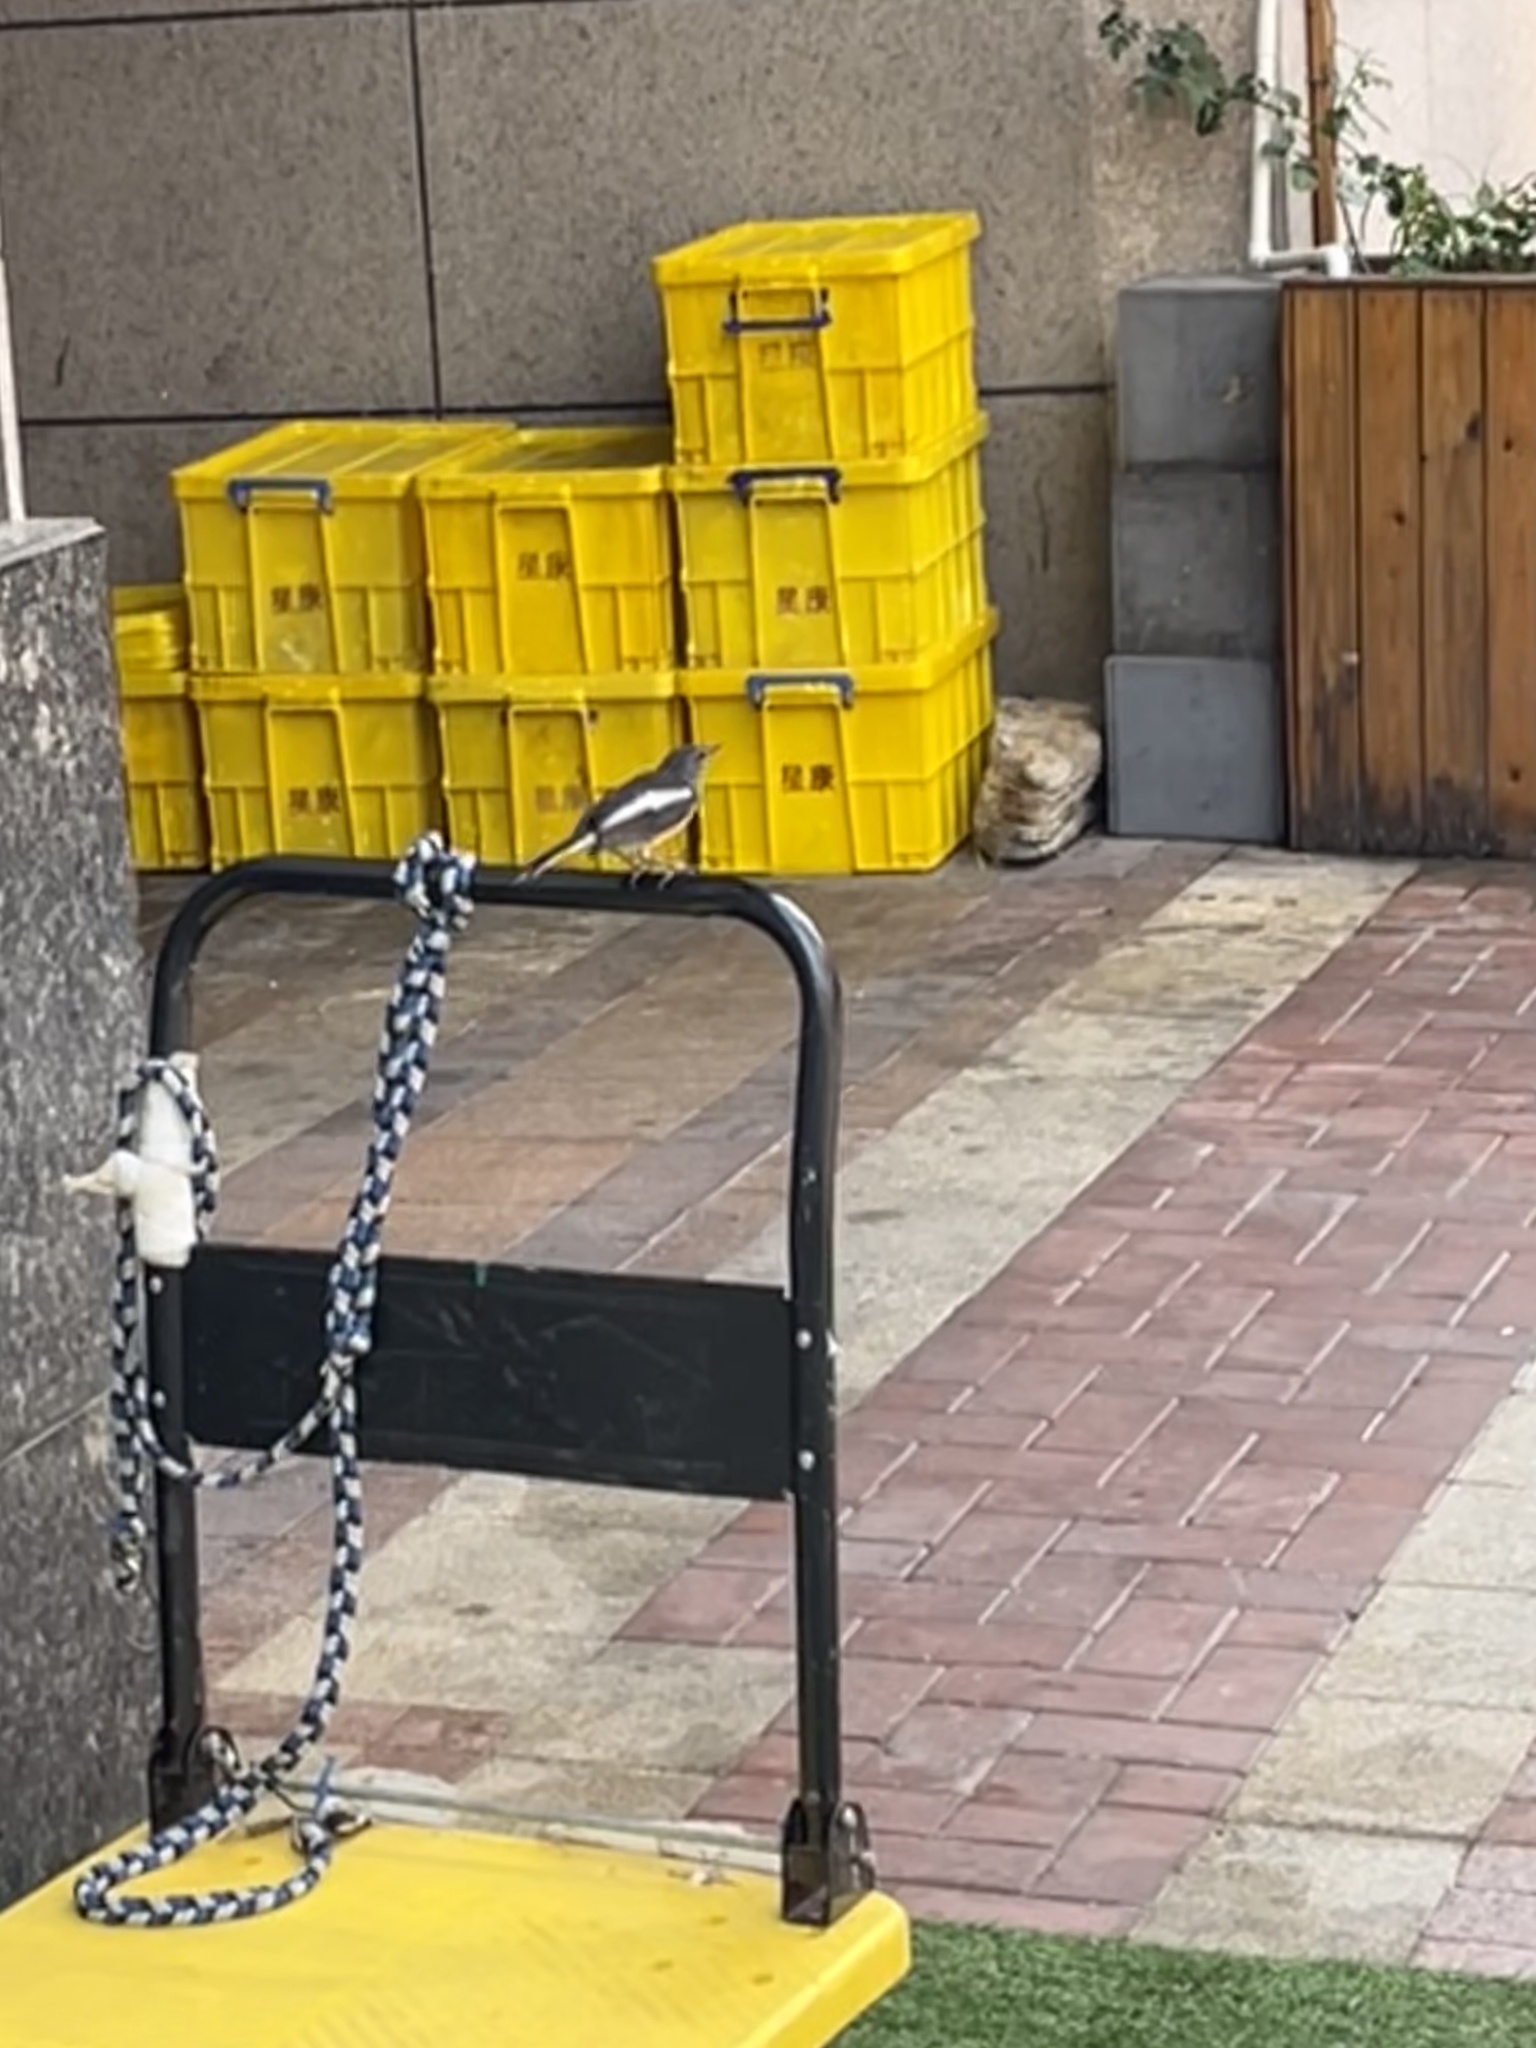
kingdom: Animalia
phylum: Chordata
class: Aves
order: Passeriformes
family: Muscicapidae
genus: Copsychus
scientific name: Copsychus saularis
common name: Oriental magpie-robin
